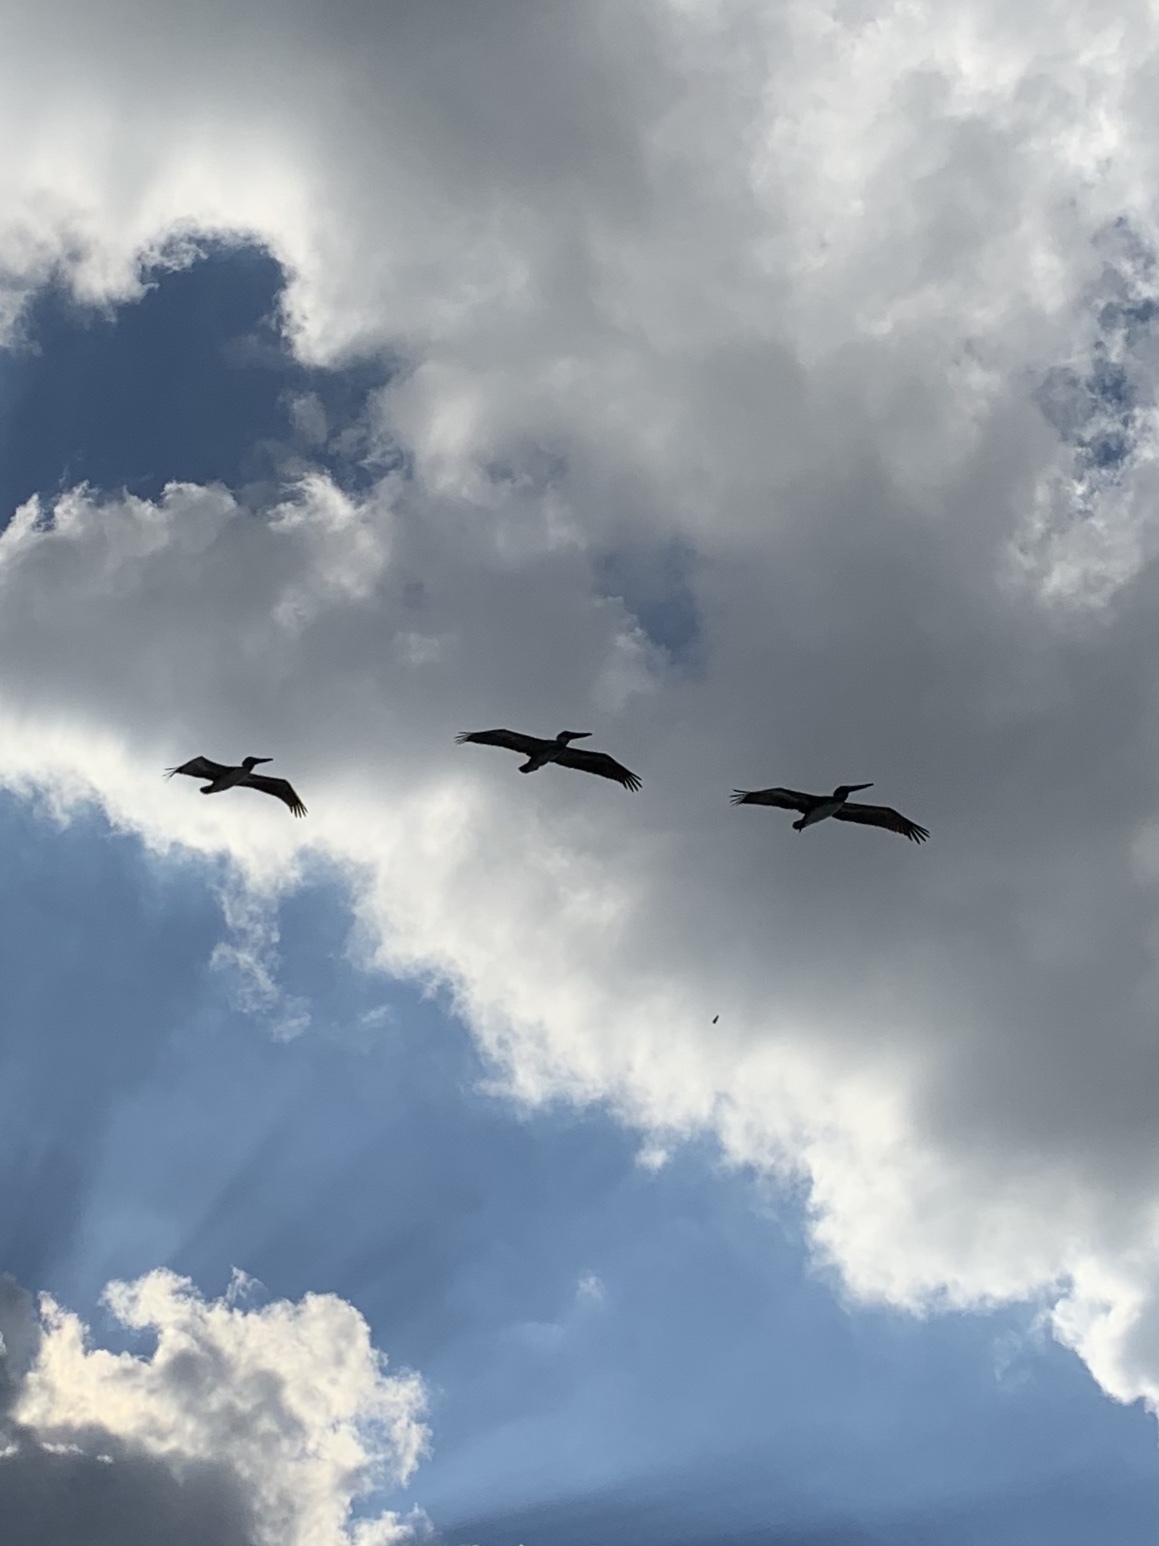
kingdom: Animalia
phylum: Chordata
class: Aves
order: Pelecaniformes
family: Pelecanidae
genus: Pelecanus
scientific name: Pelecanus occidentalis
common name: Brown pelican
